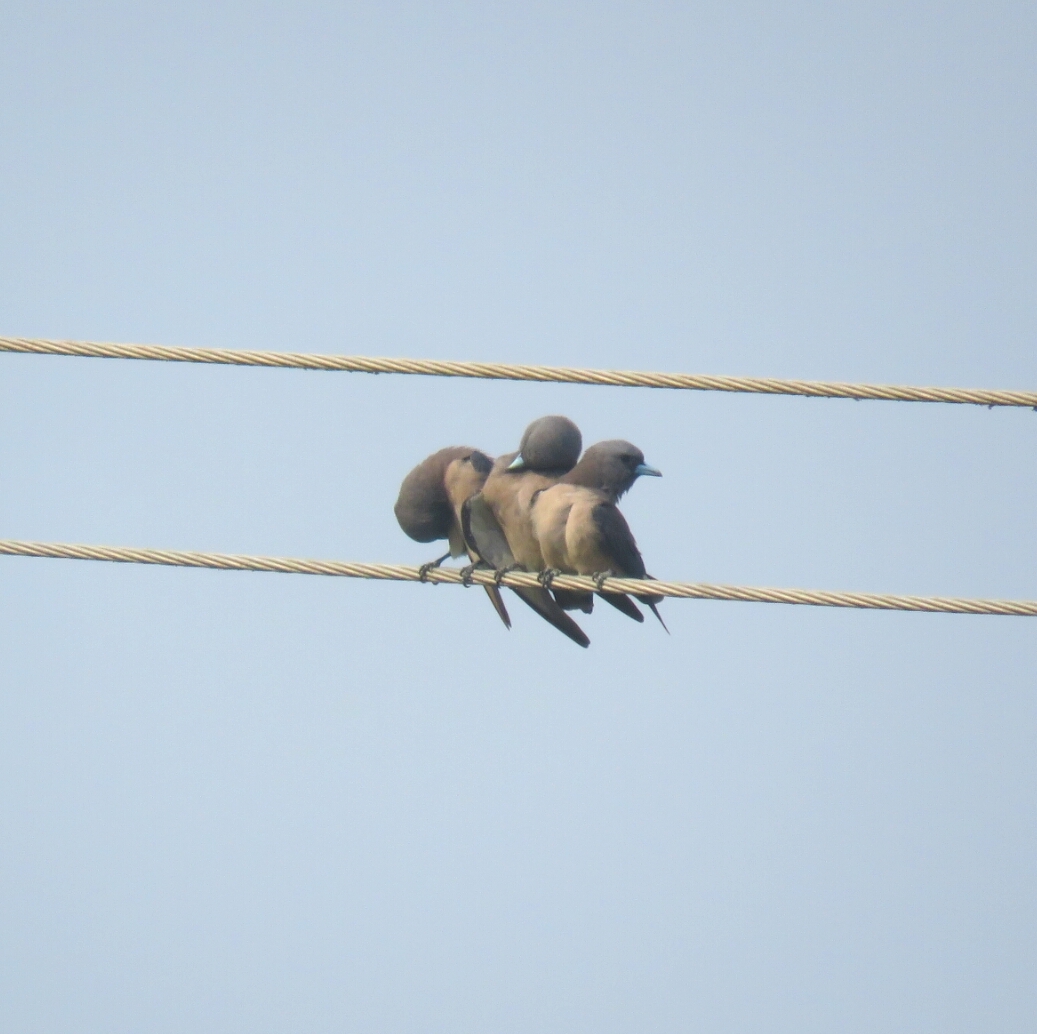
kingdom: Animalia
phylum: Chordata
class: Aves
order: Passeriformes
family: Artamidae
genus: Artamus
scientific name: Artamus fuscus
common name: Ashy woodswallow
